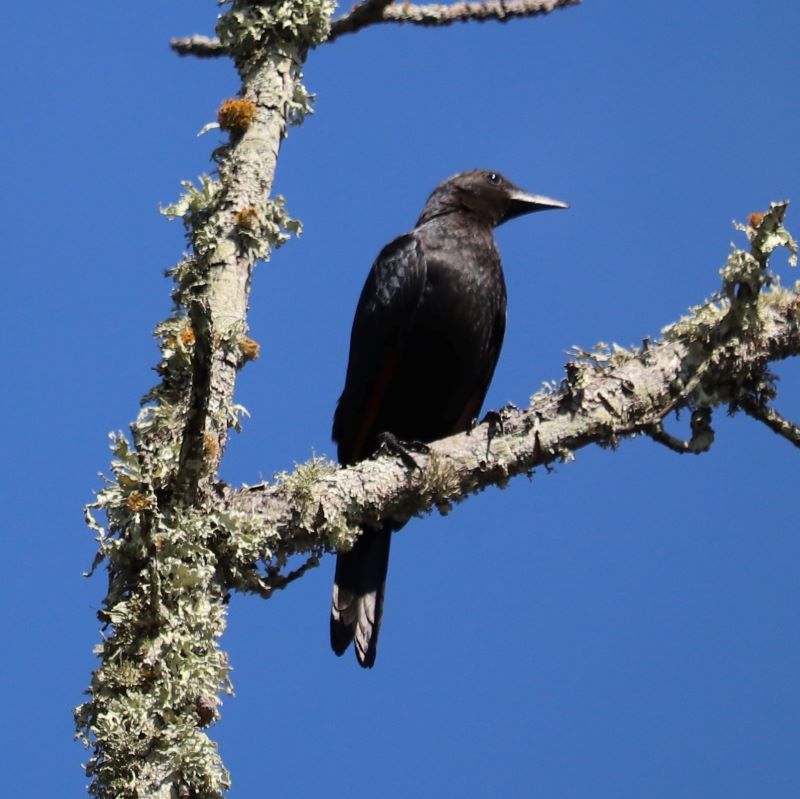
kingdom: Animalia
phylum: Chordata
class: Aves
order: Passeriformes
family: Sturnidae
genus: Onychognathus
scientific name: Onychognathus morio
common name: Red-winged starling
